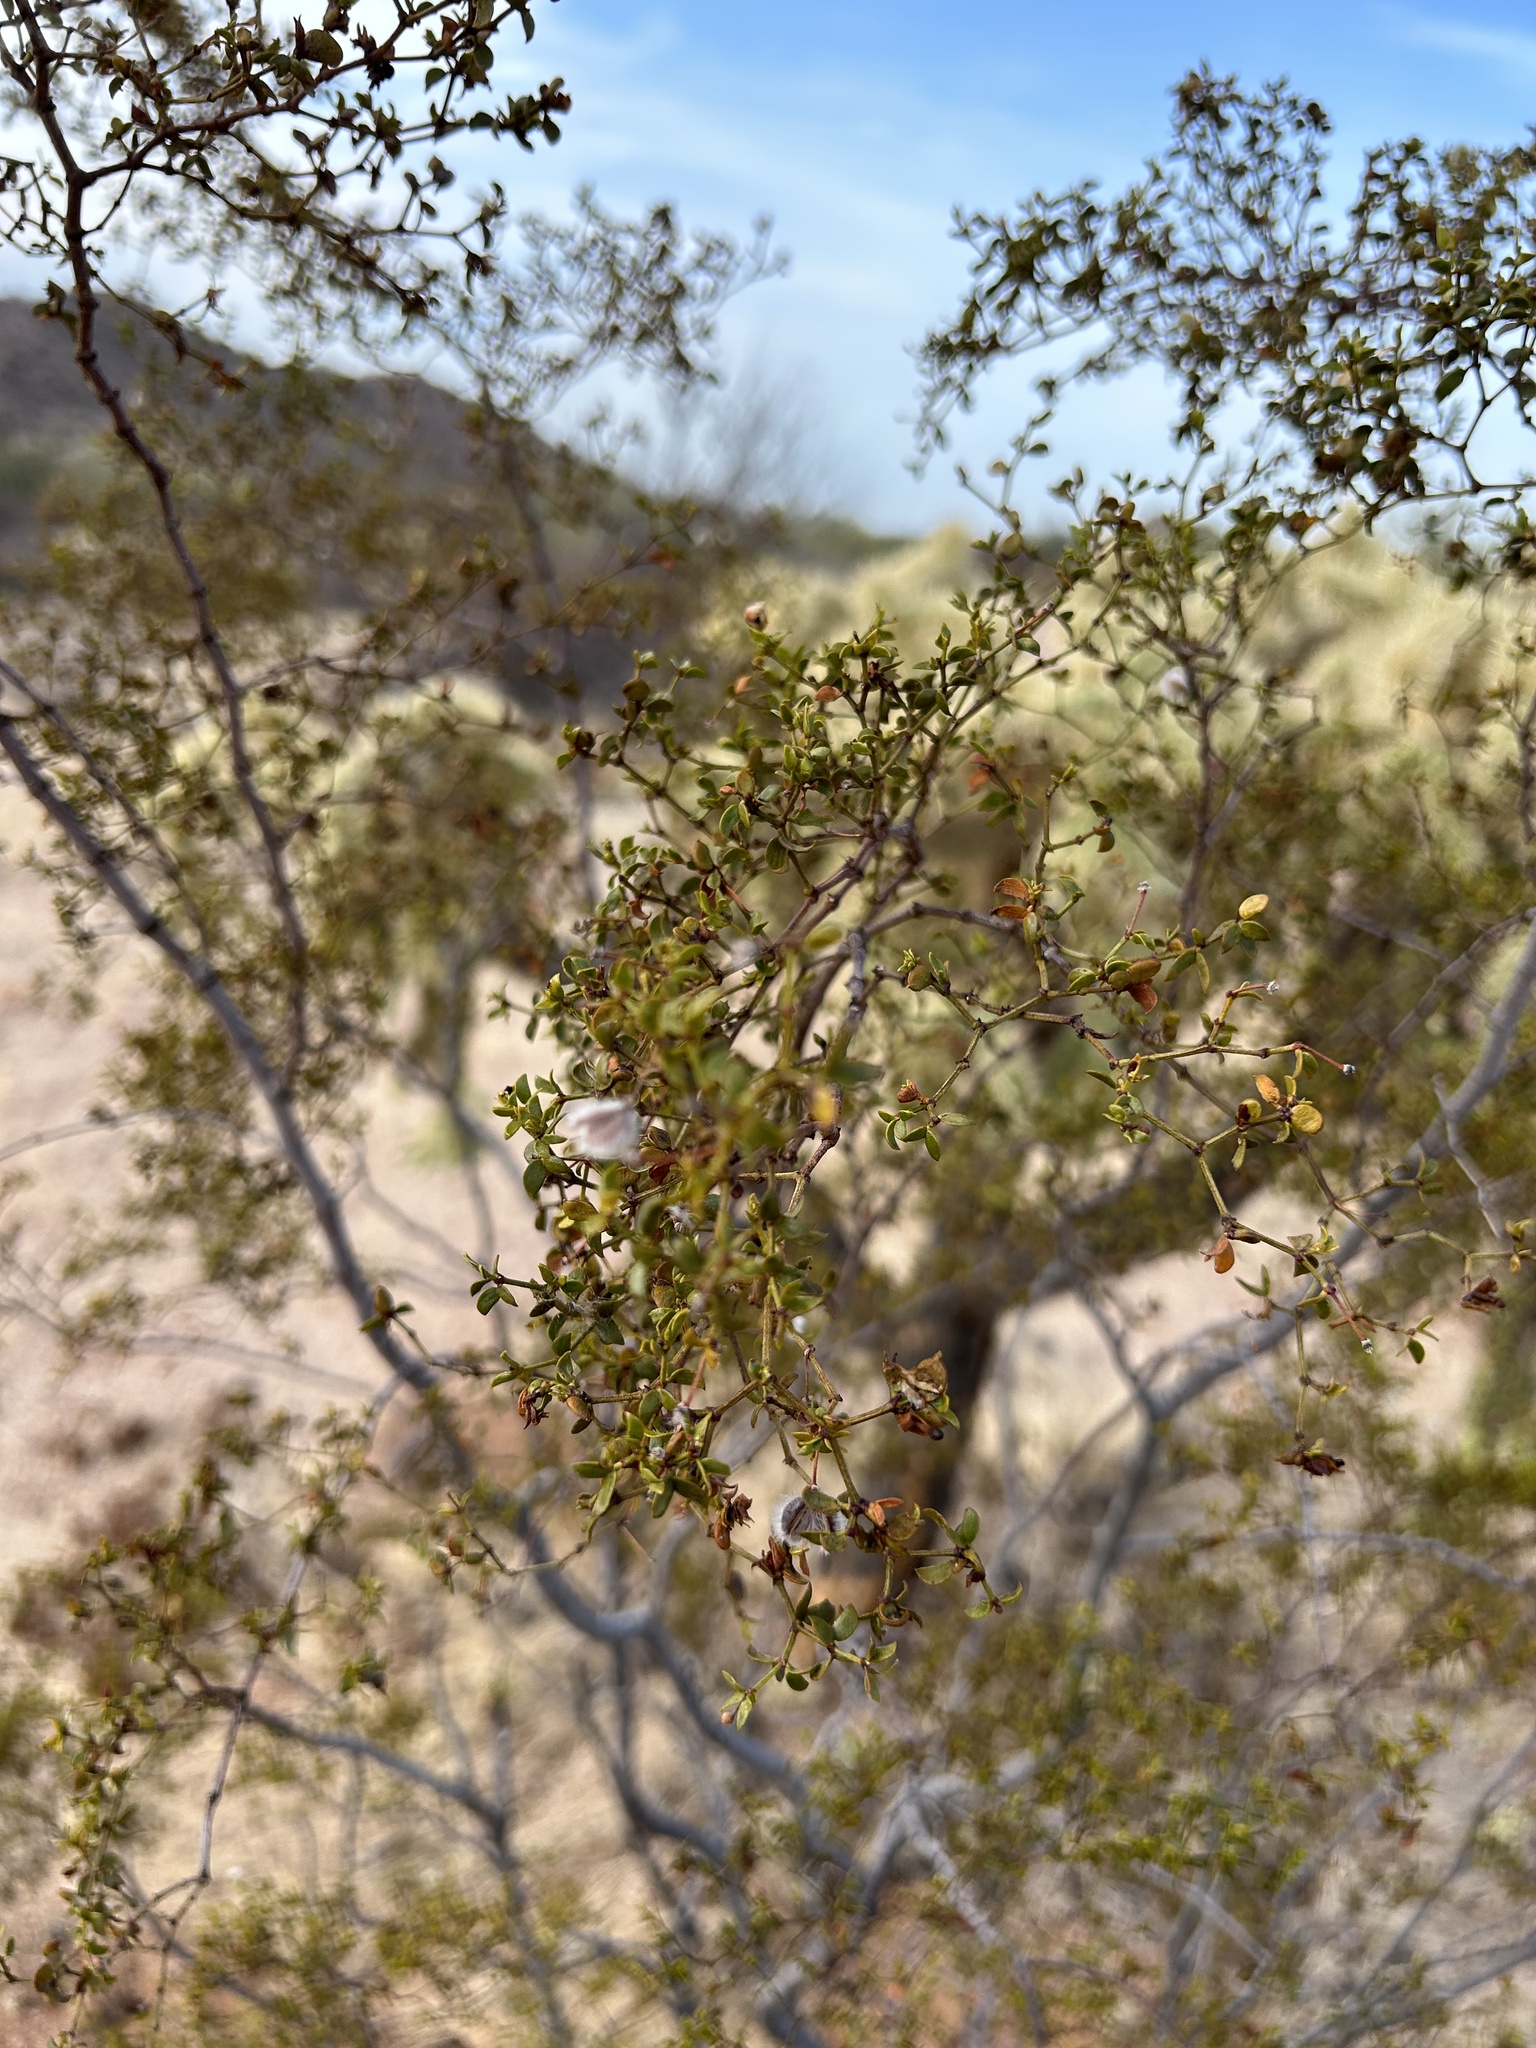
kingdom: Plantae
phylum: Tracheophyta
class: Magnoliopsida
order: Zygophyllales
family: Zygophyllaceae
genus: Larrea
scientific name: Larrea tridentata
